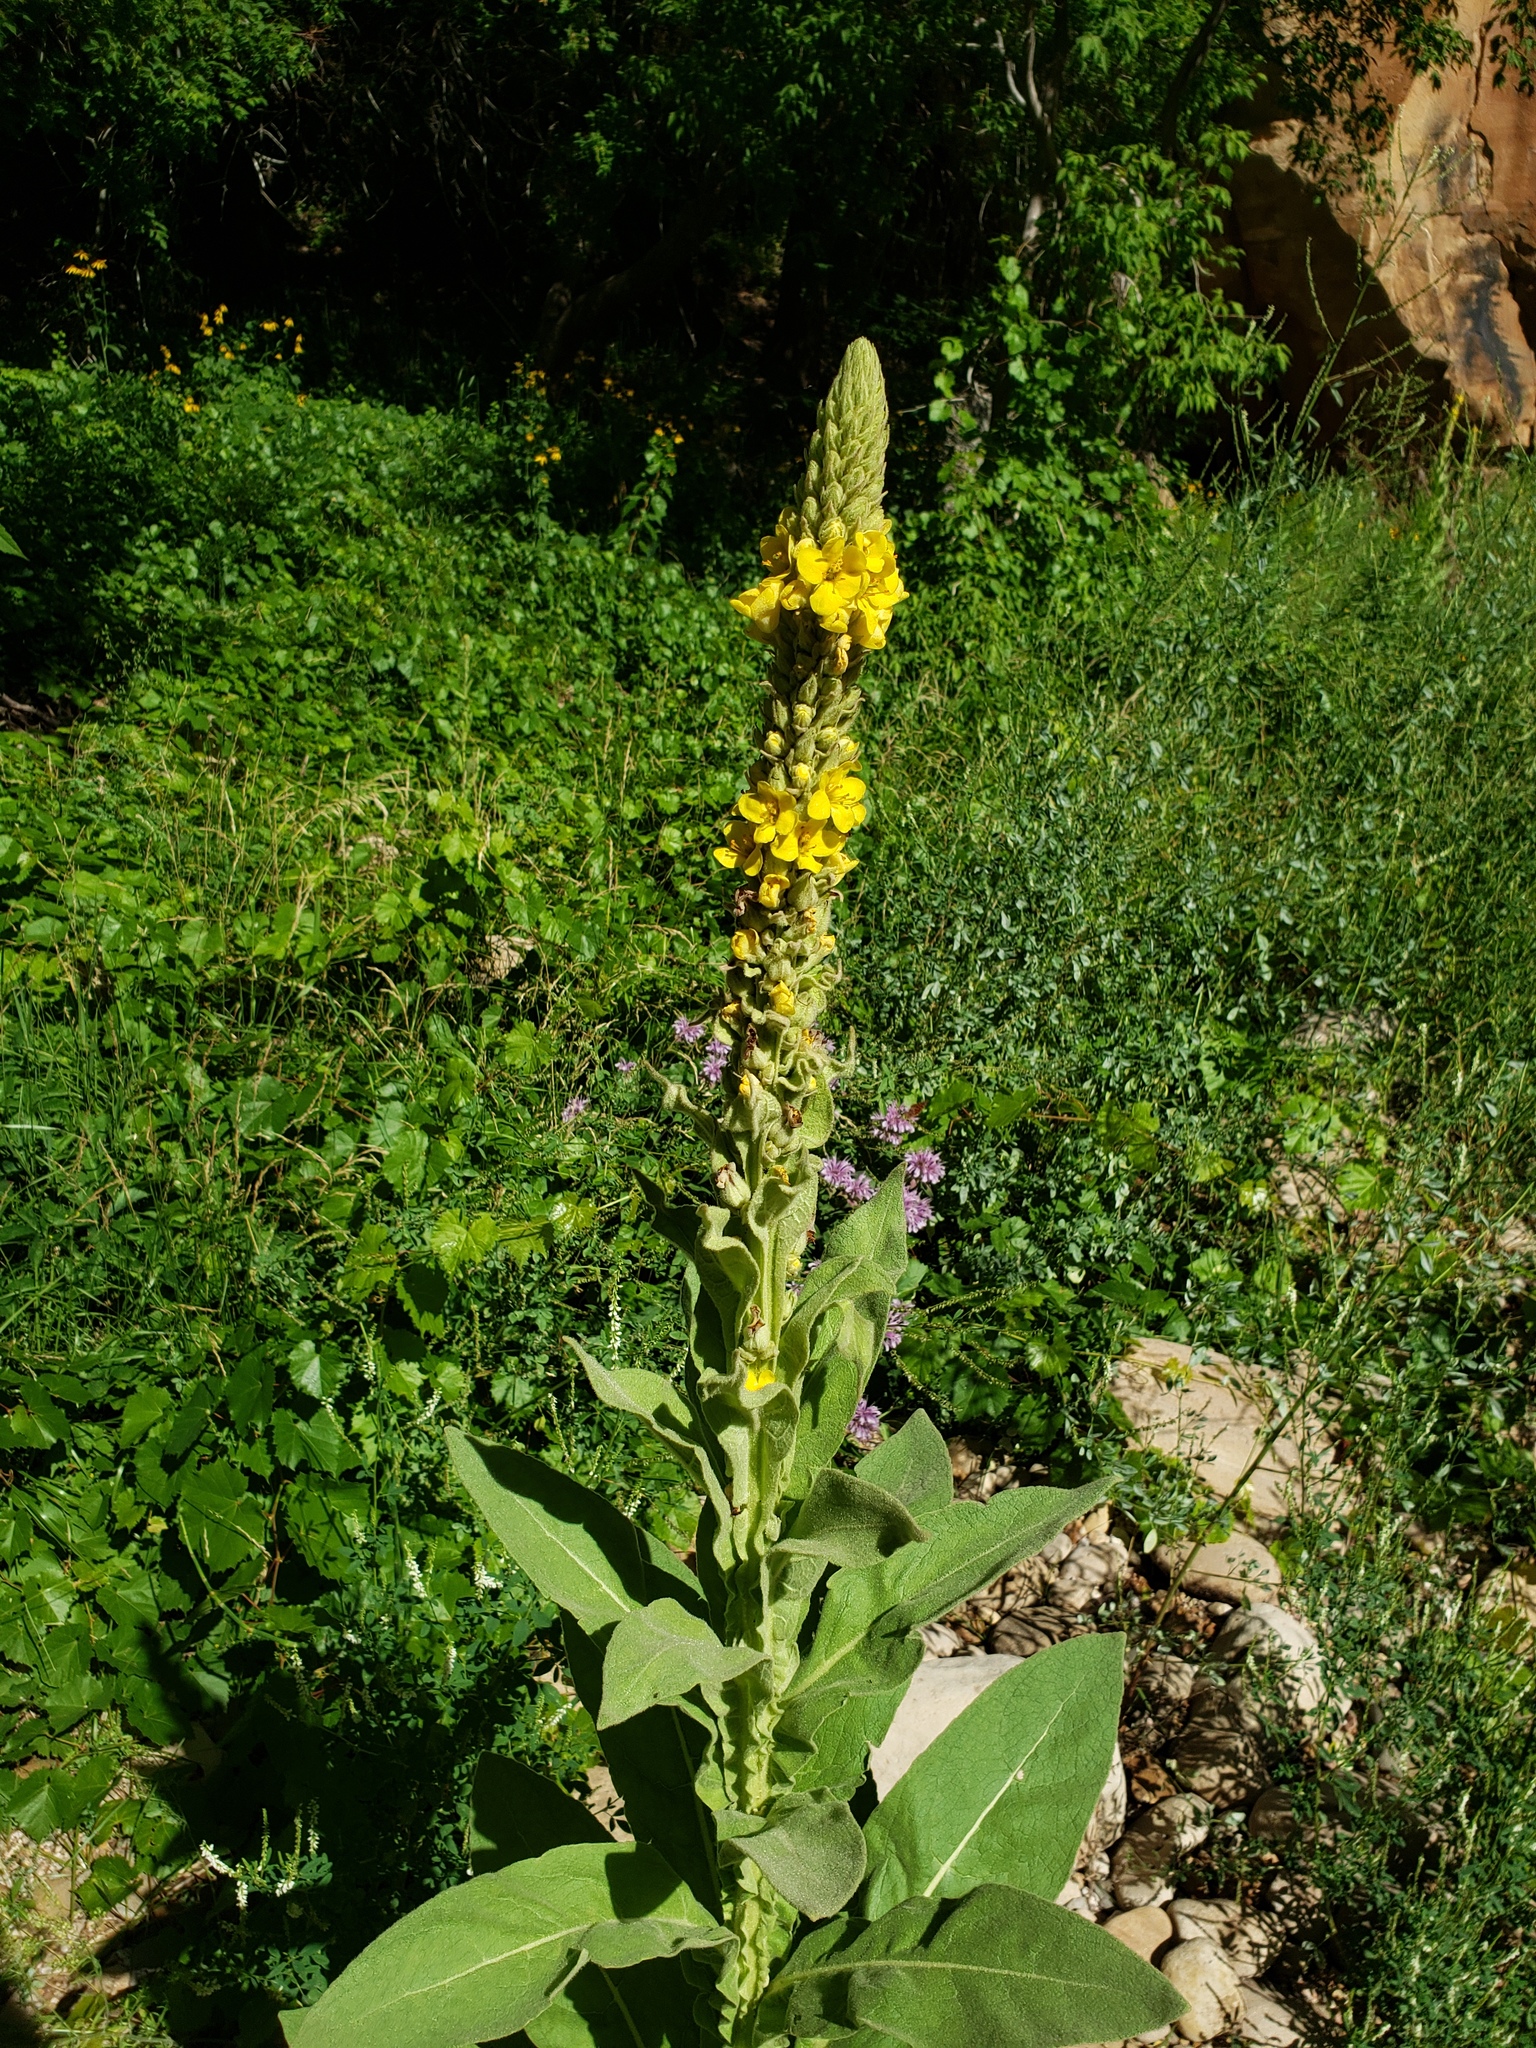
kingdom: Plantae
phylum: Tracheophyta
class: Magnoliopsida
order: Lamiales
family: Scrophulariaceae
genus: Verbascum
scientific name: Verbascum thapsus
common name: Common mullein
